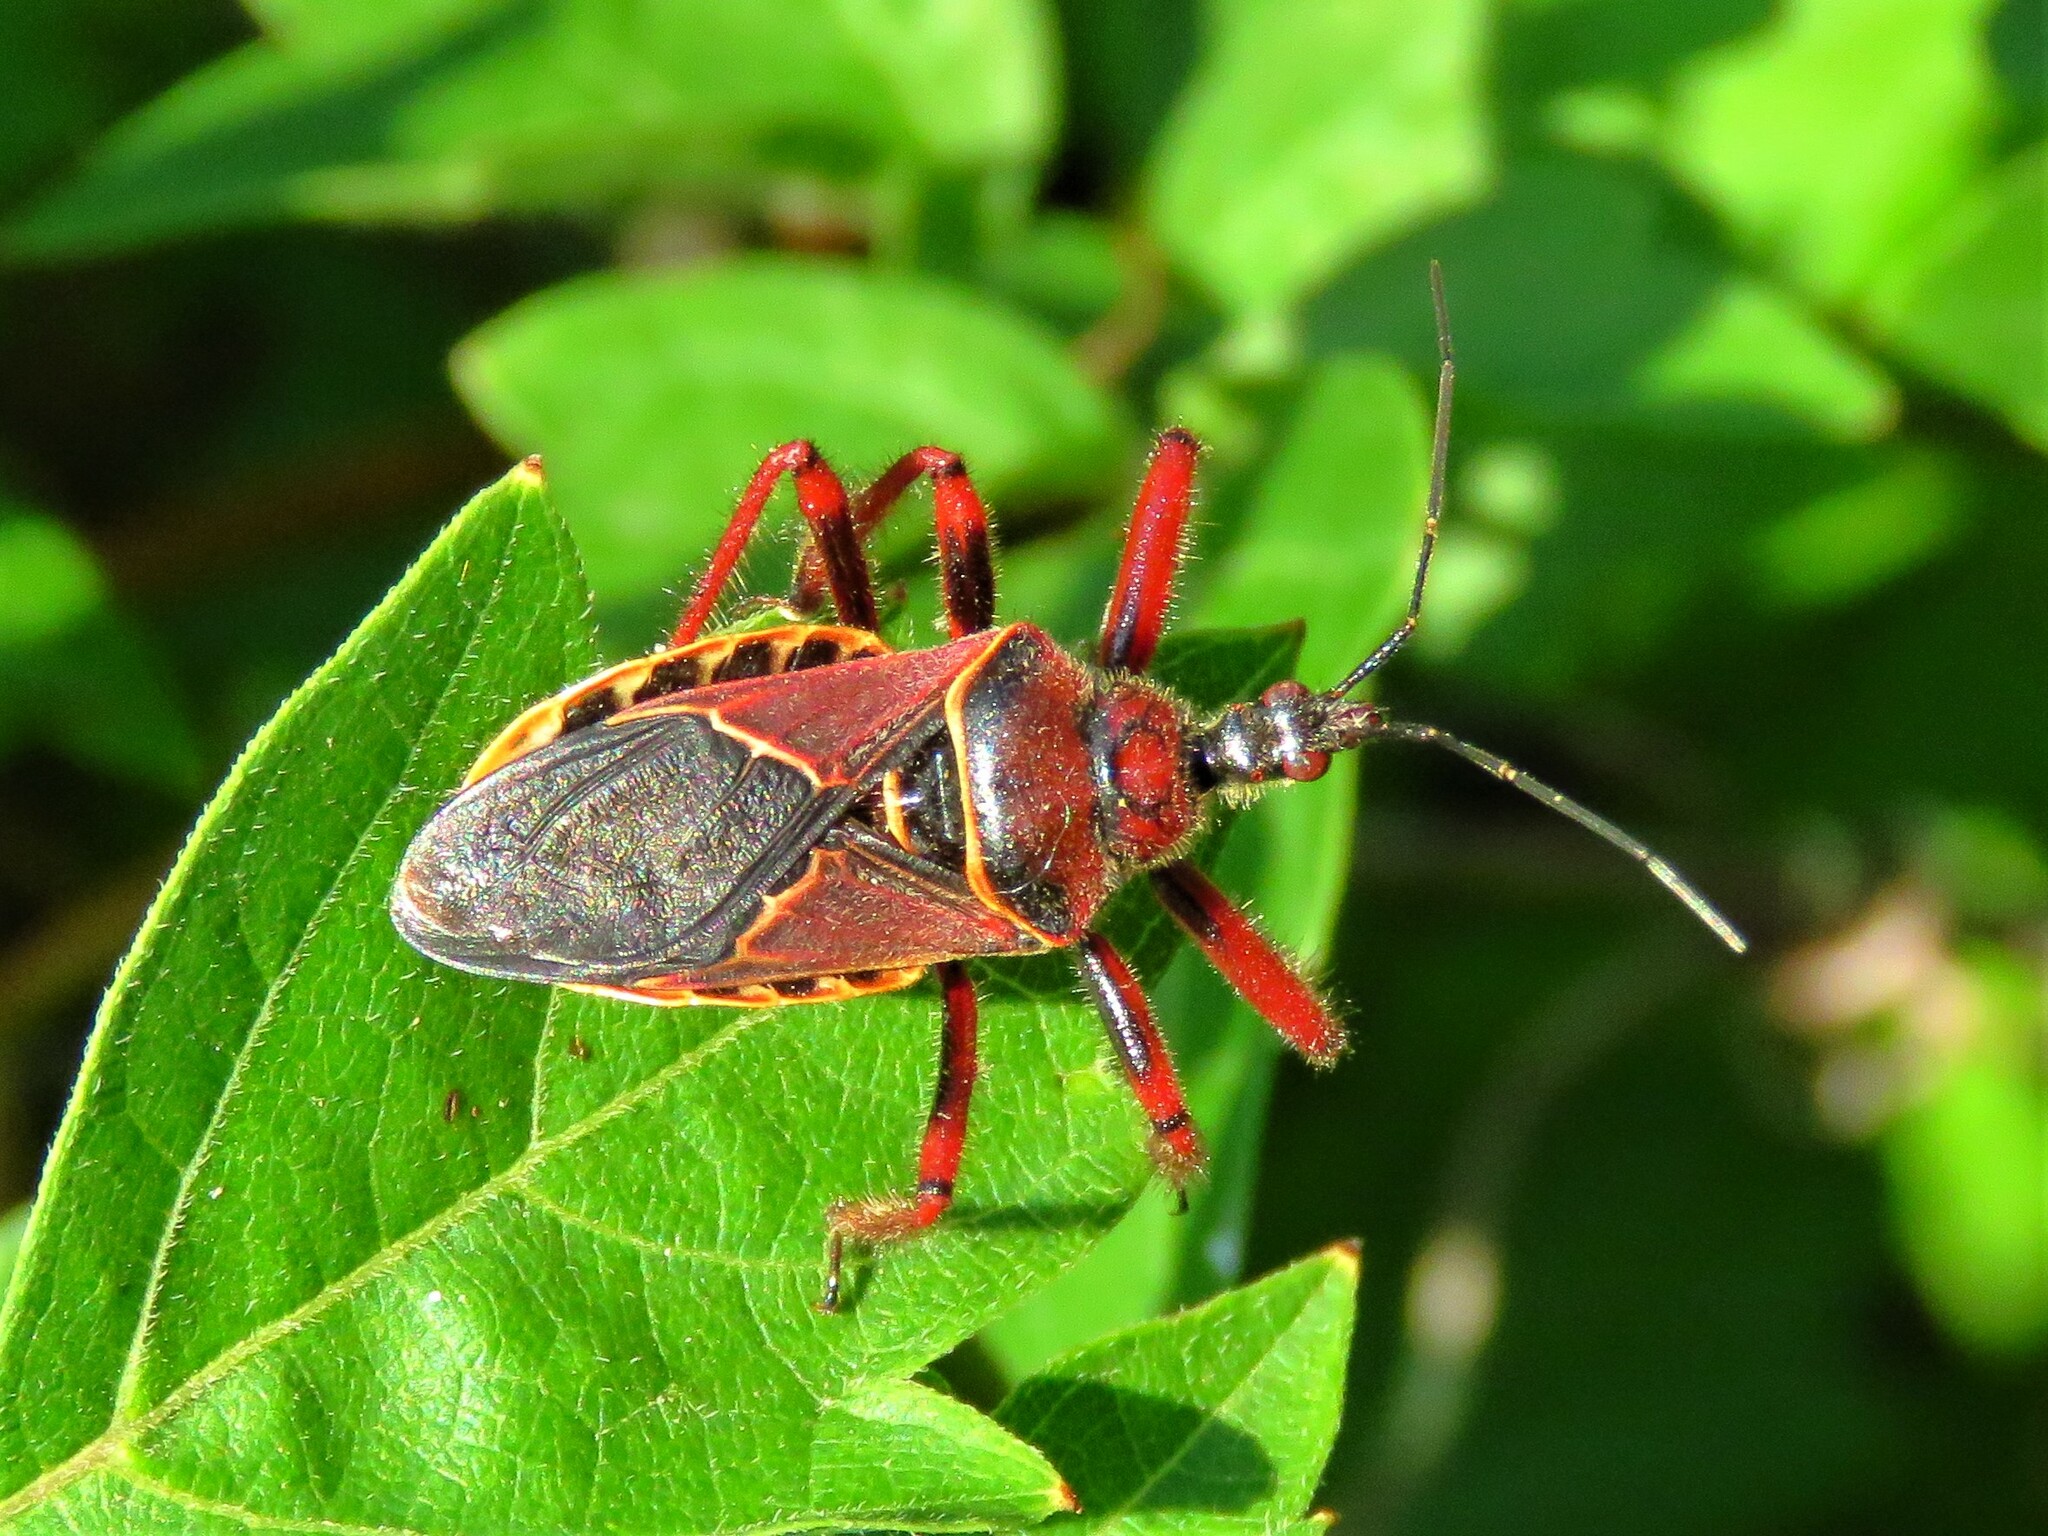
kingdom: Animalia
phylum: Arthropoda
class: Insecta
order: Hemiptera
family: Reduviidae
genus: Apiomerus
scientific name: Apiomerus spissipes
